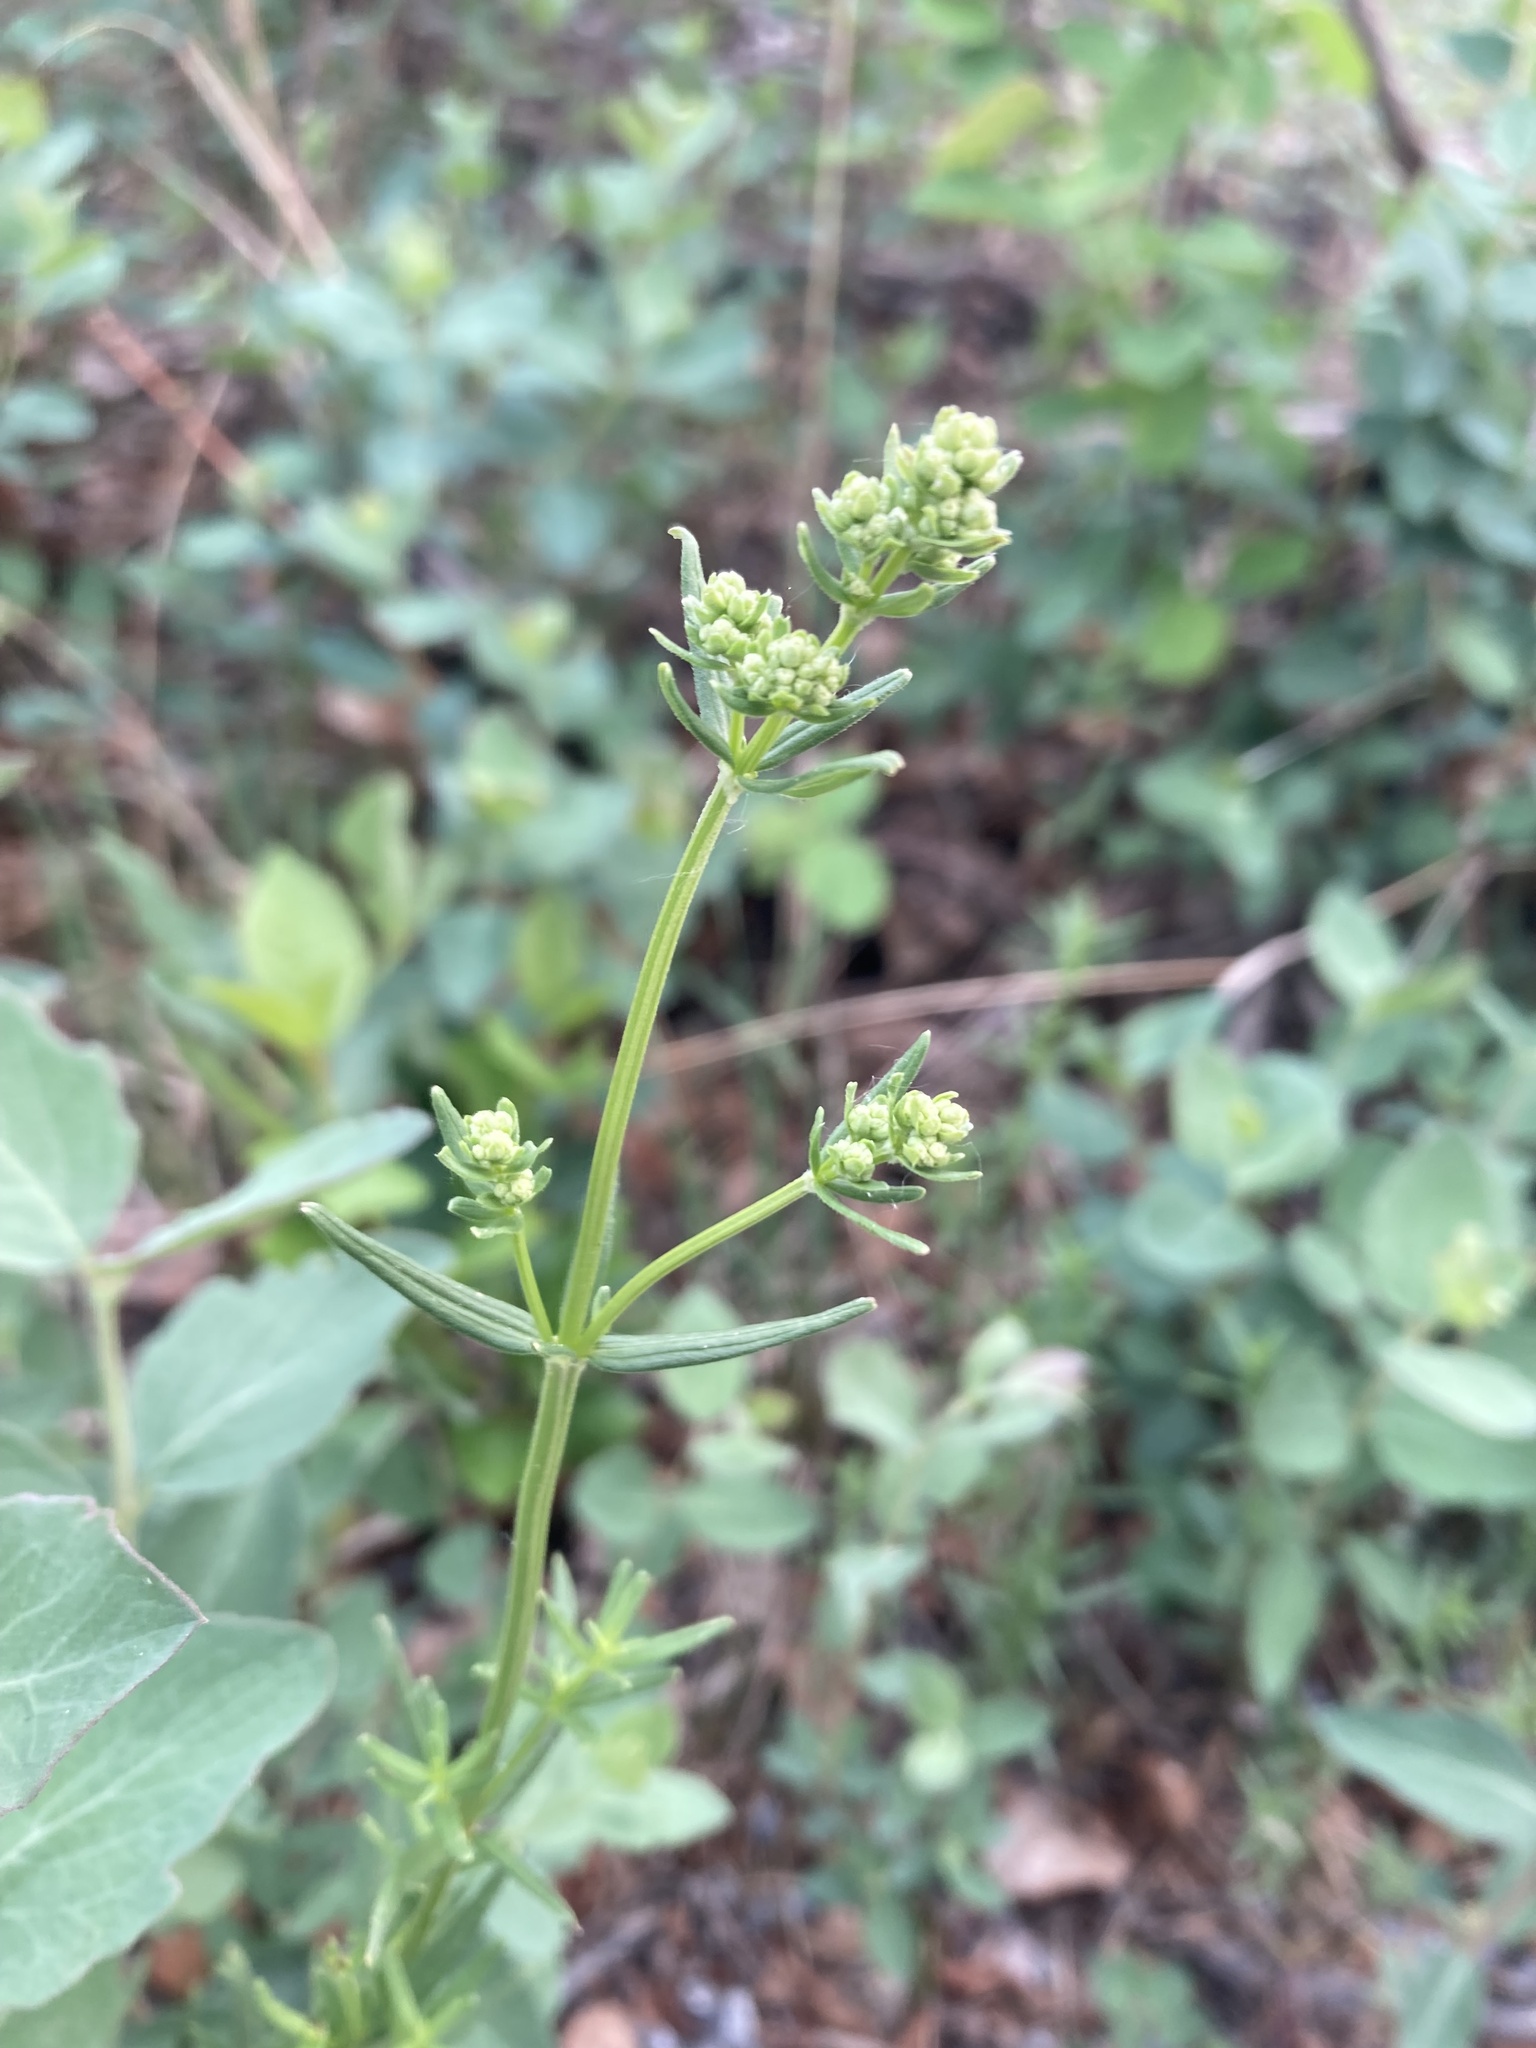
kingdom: Plantae
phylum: Tracheophyta
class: Magnoliopsida
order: Gentianales
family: Rubiaceae
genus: Galium
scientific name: Galium boreale
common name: Northern bedstraw
